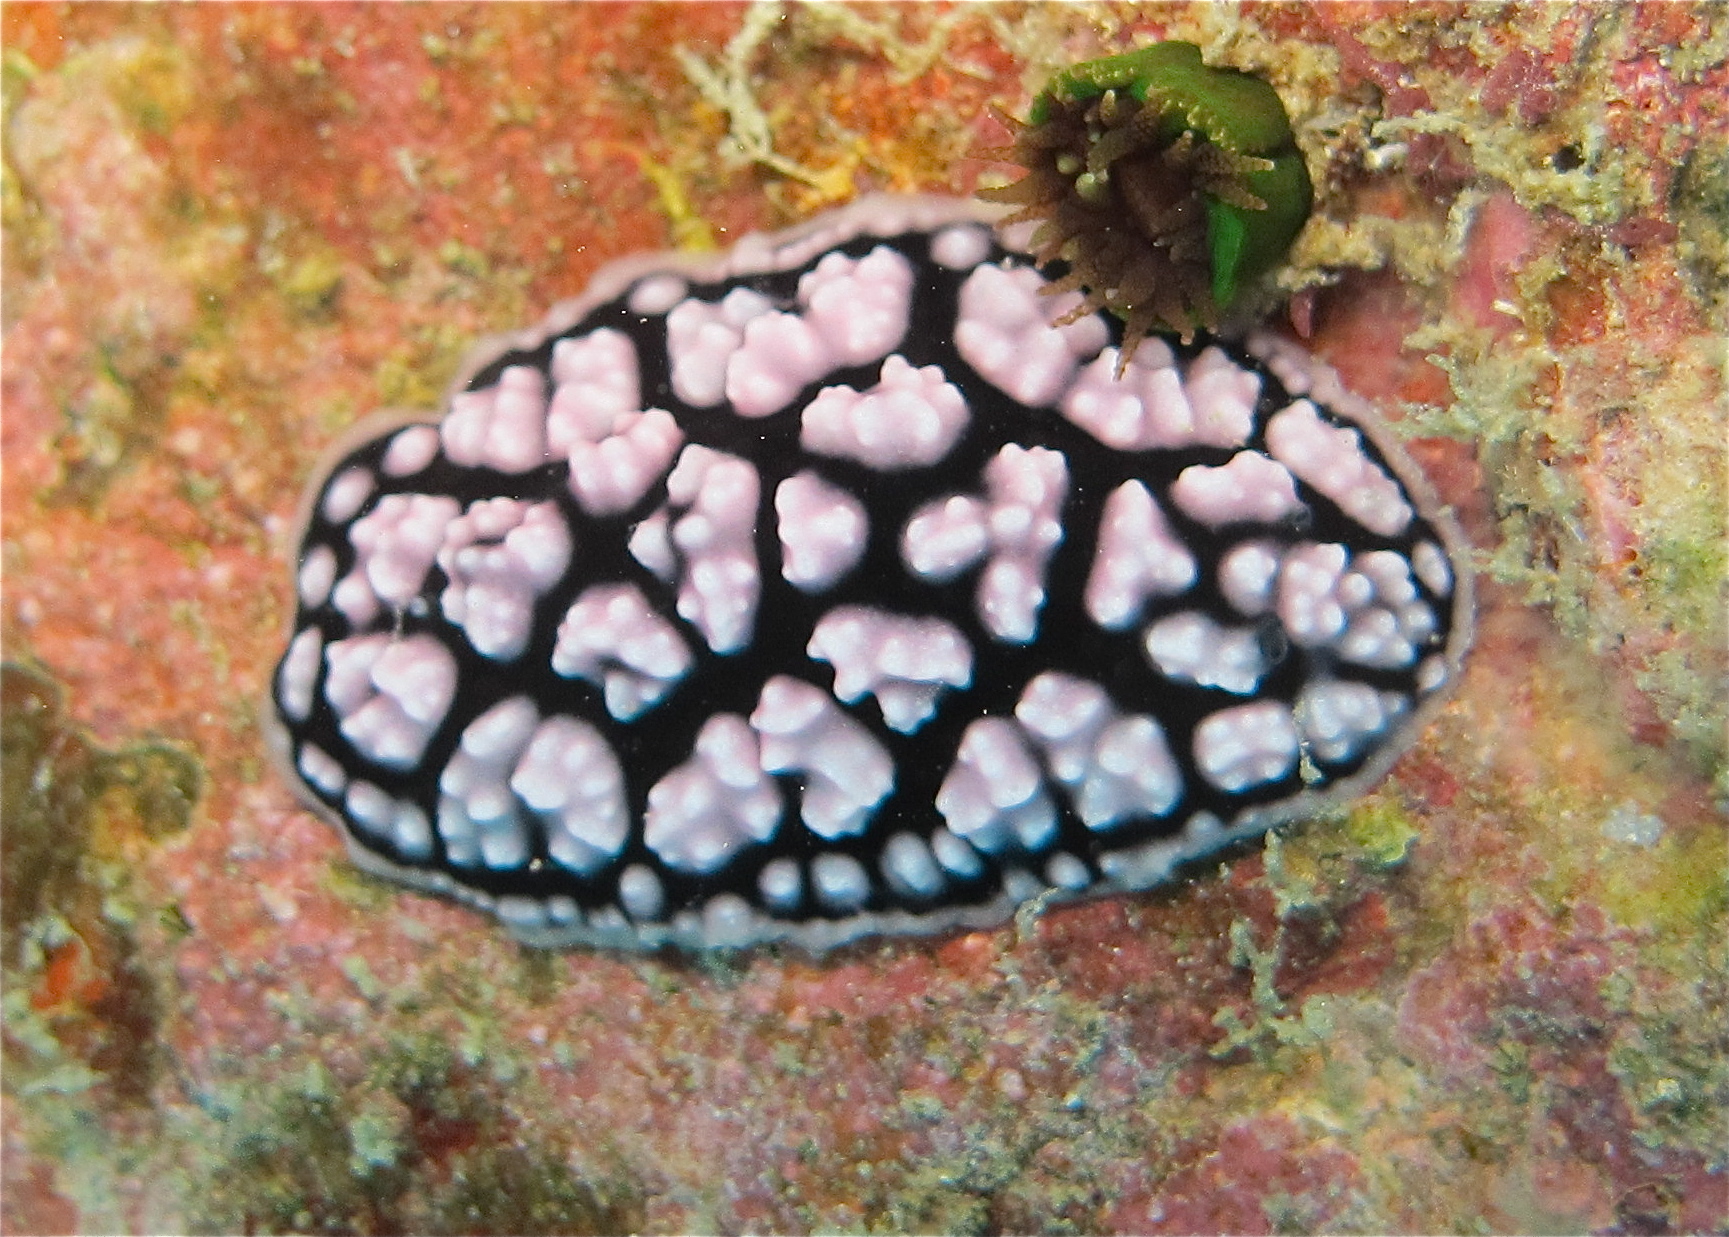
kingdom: Animalia
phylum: Mollusca
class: Gastropoda
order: Nudibranchia
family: Phyllidiidae
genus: Phyllidiella
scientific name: Phyllidiella pustulosa
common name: Pustular phyllidia
